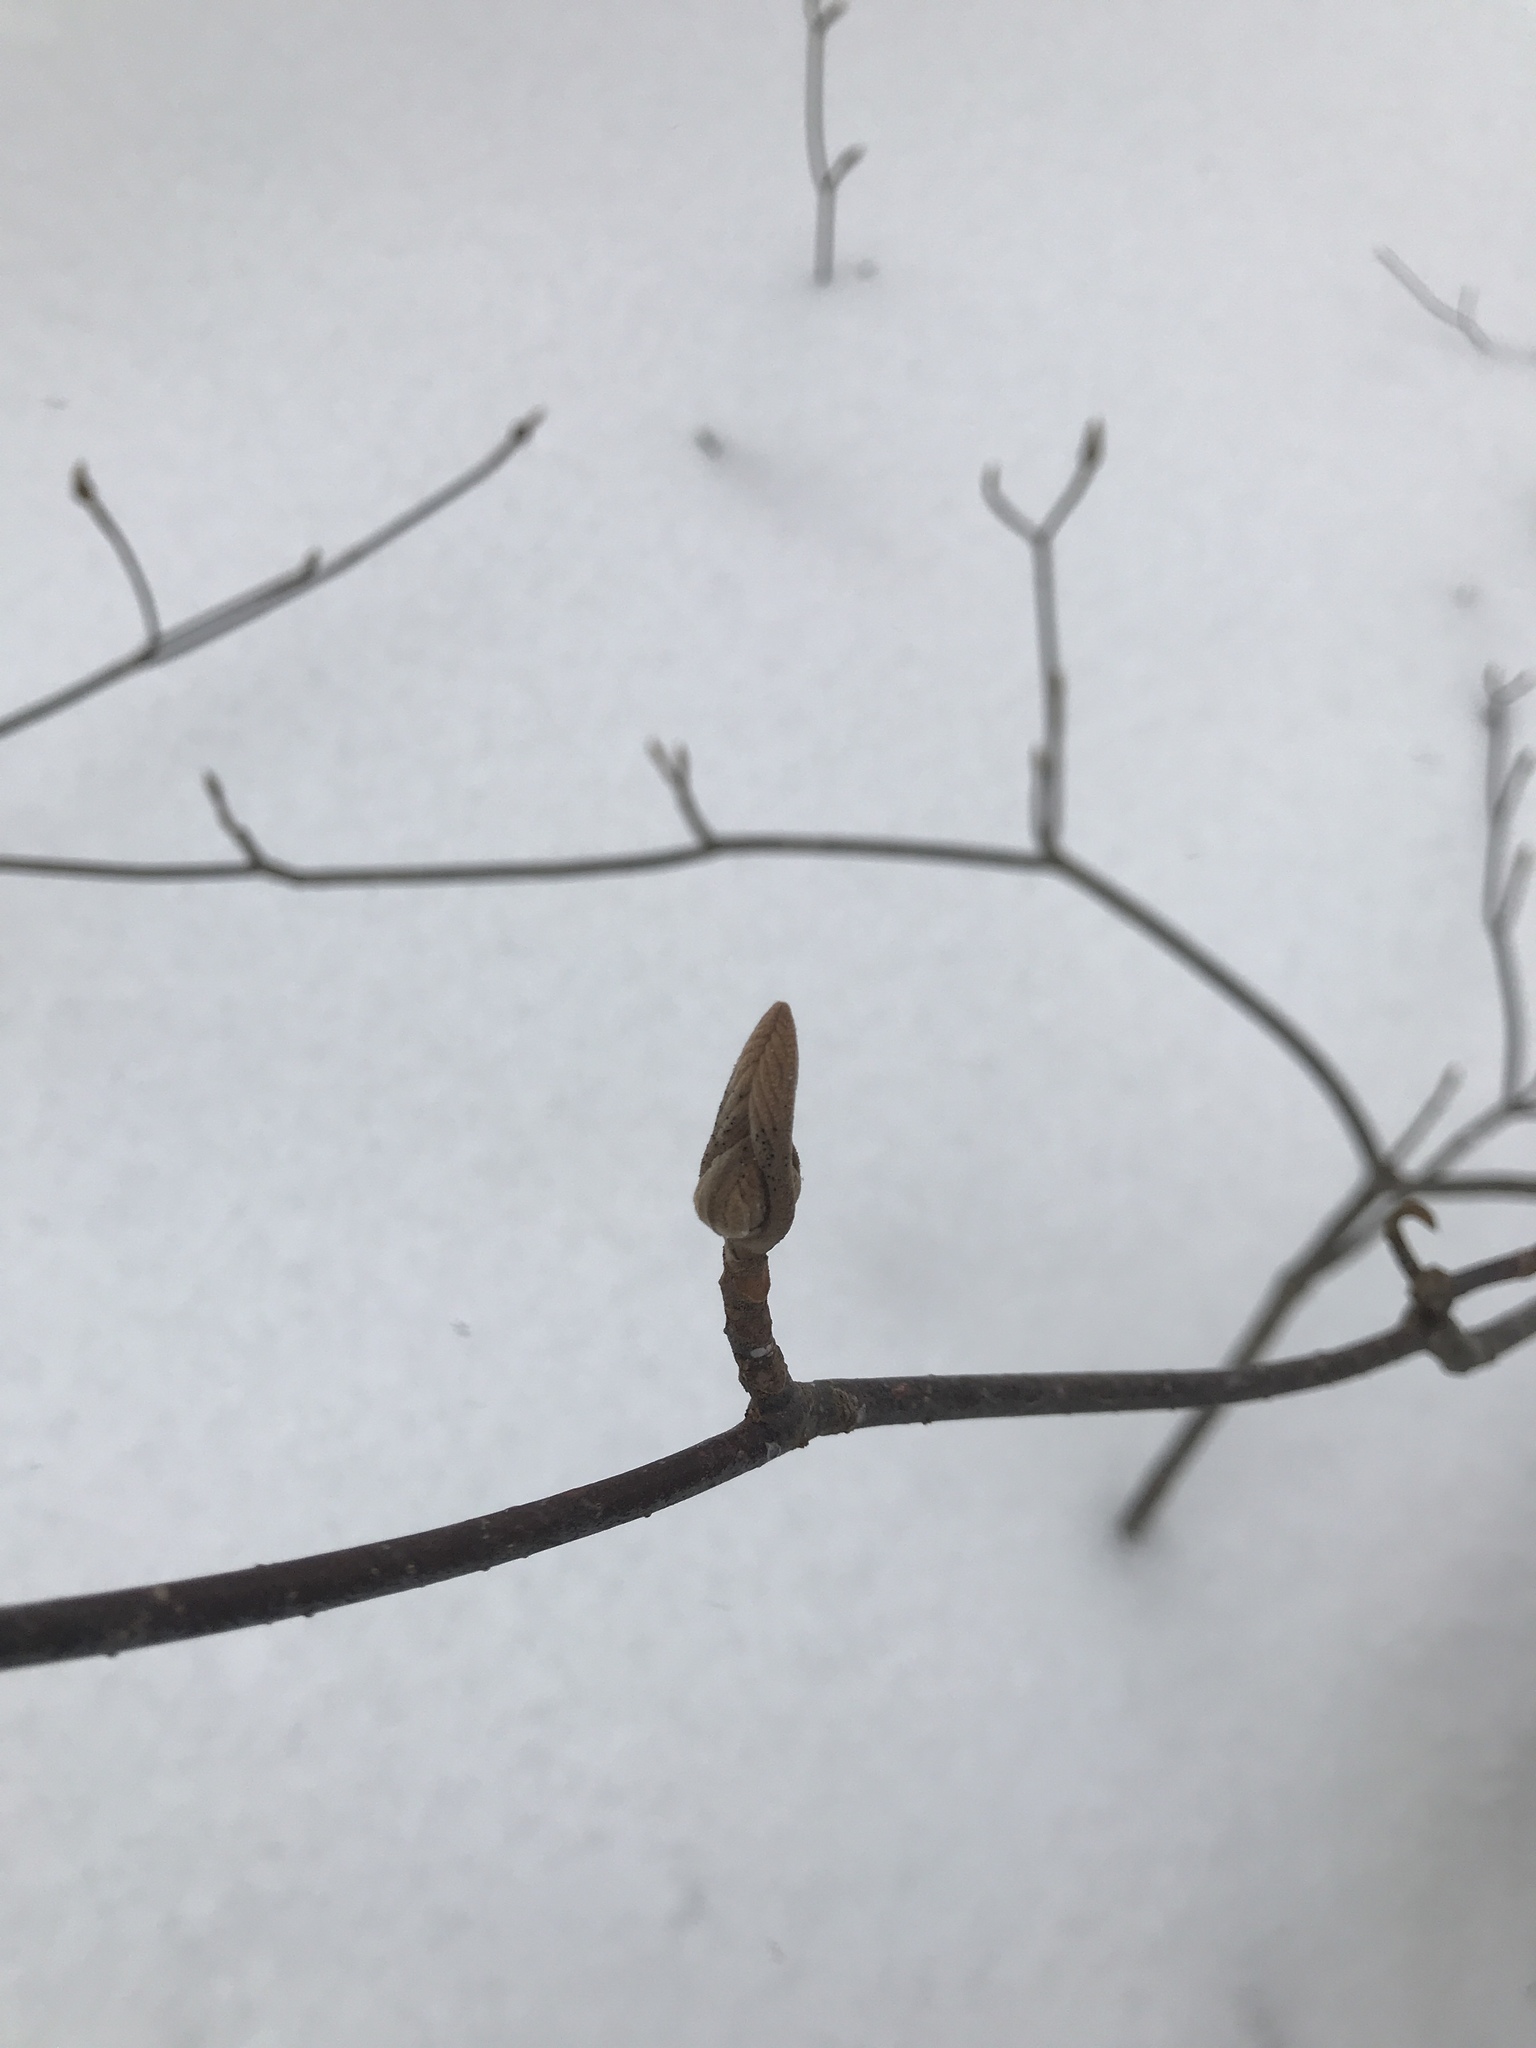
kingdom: Plantae
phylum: Tracheophyta
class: Magnoliopsida
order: Dipsacales
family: Viburnaceae
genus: Viburnum
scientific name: Viburnum lantanoides
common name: Hobblebush
